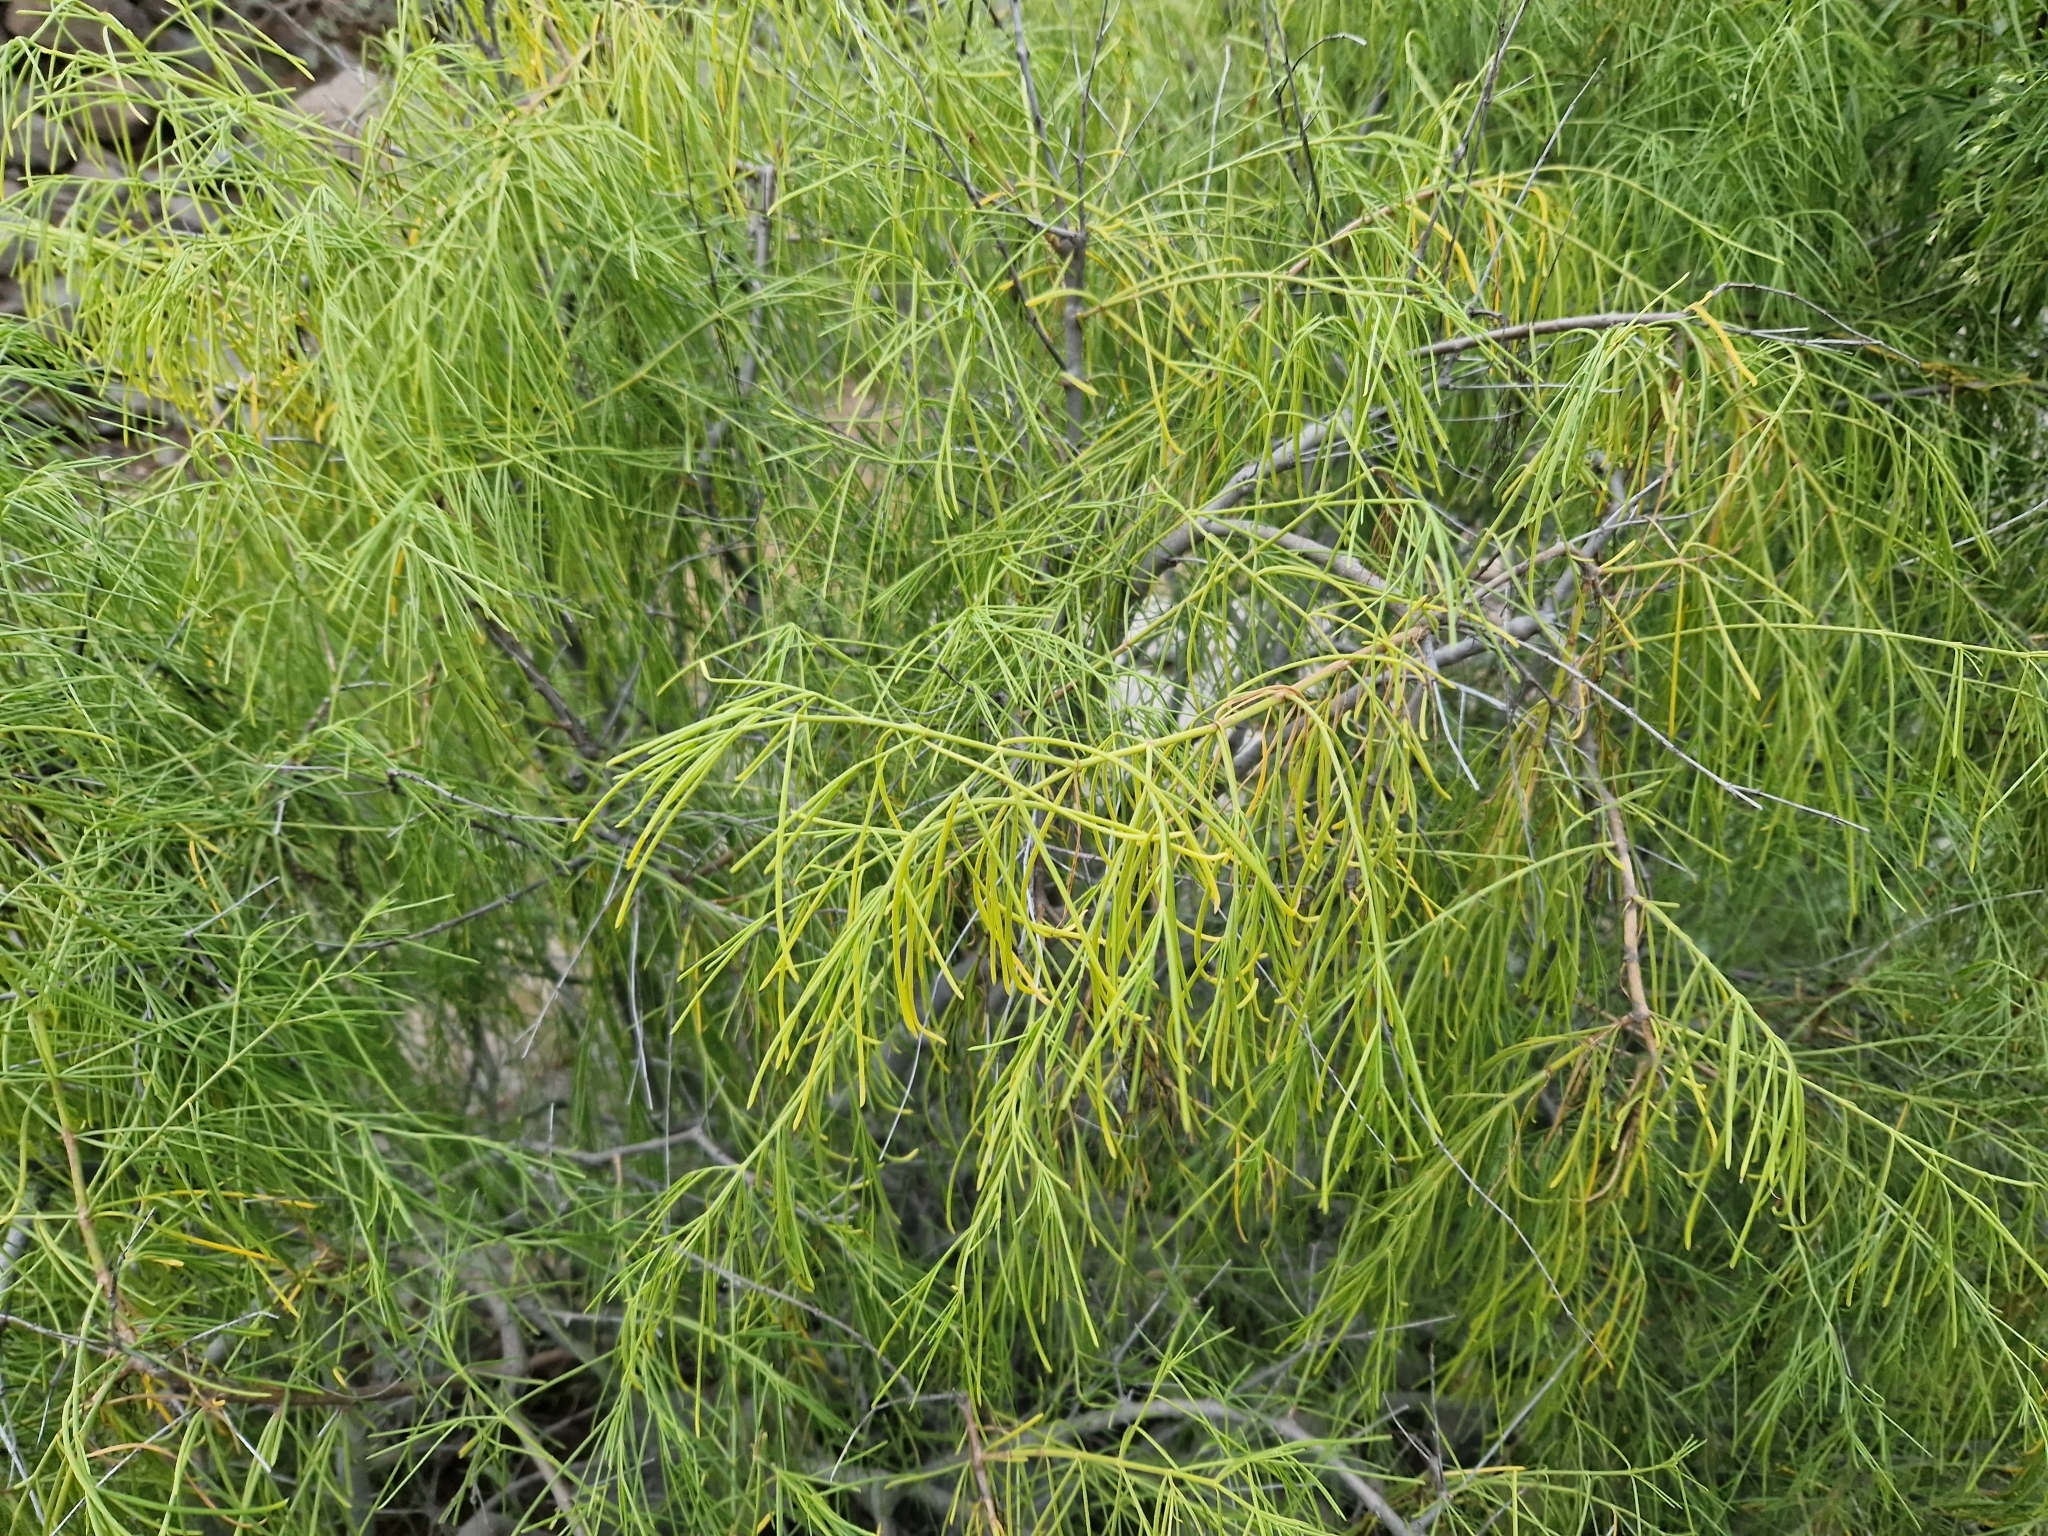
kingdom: Plantae
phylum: Tracheophyta
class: Magnoliopsida
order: Gentianales
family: Rubiaceae
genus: Plocama
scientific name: Plocama pendula
